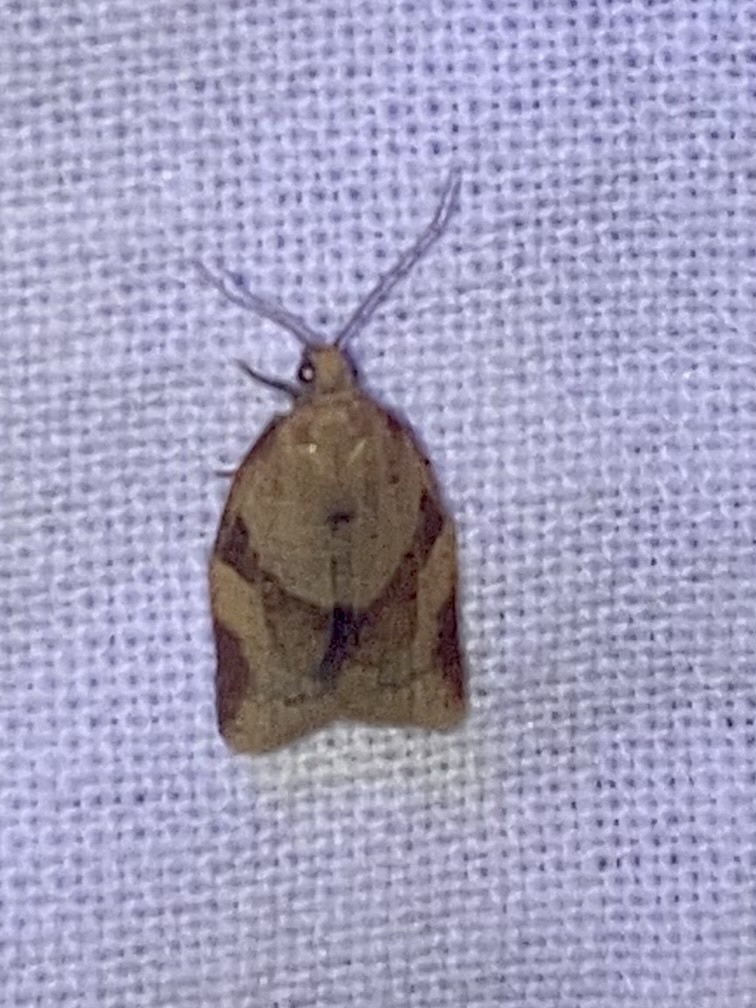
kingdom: Animalia
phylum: Arthropoda
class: Insecta
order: Lepidoptera
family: Tortricidae
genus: Clepsis
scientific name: Clepsis consimilana
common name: Privet tortrix
